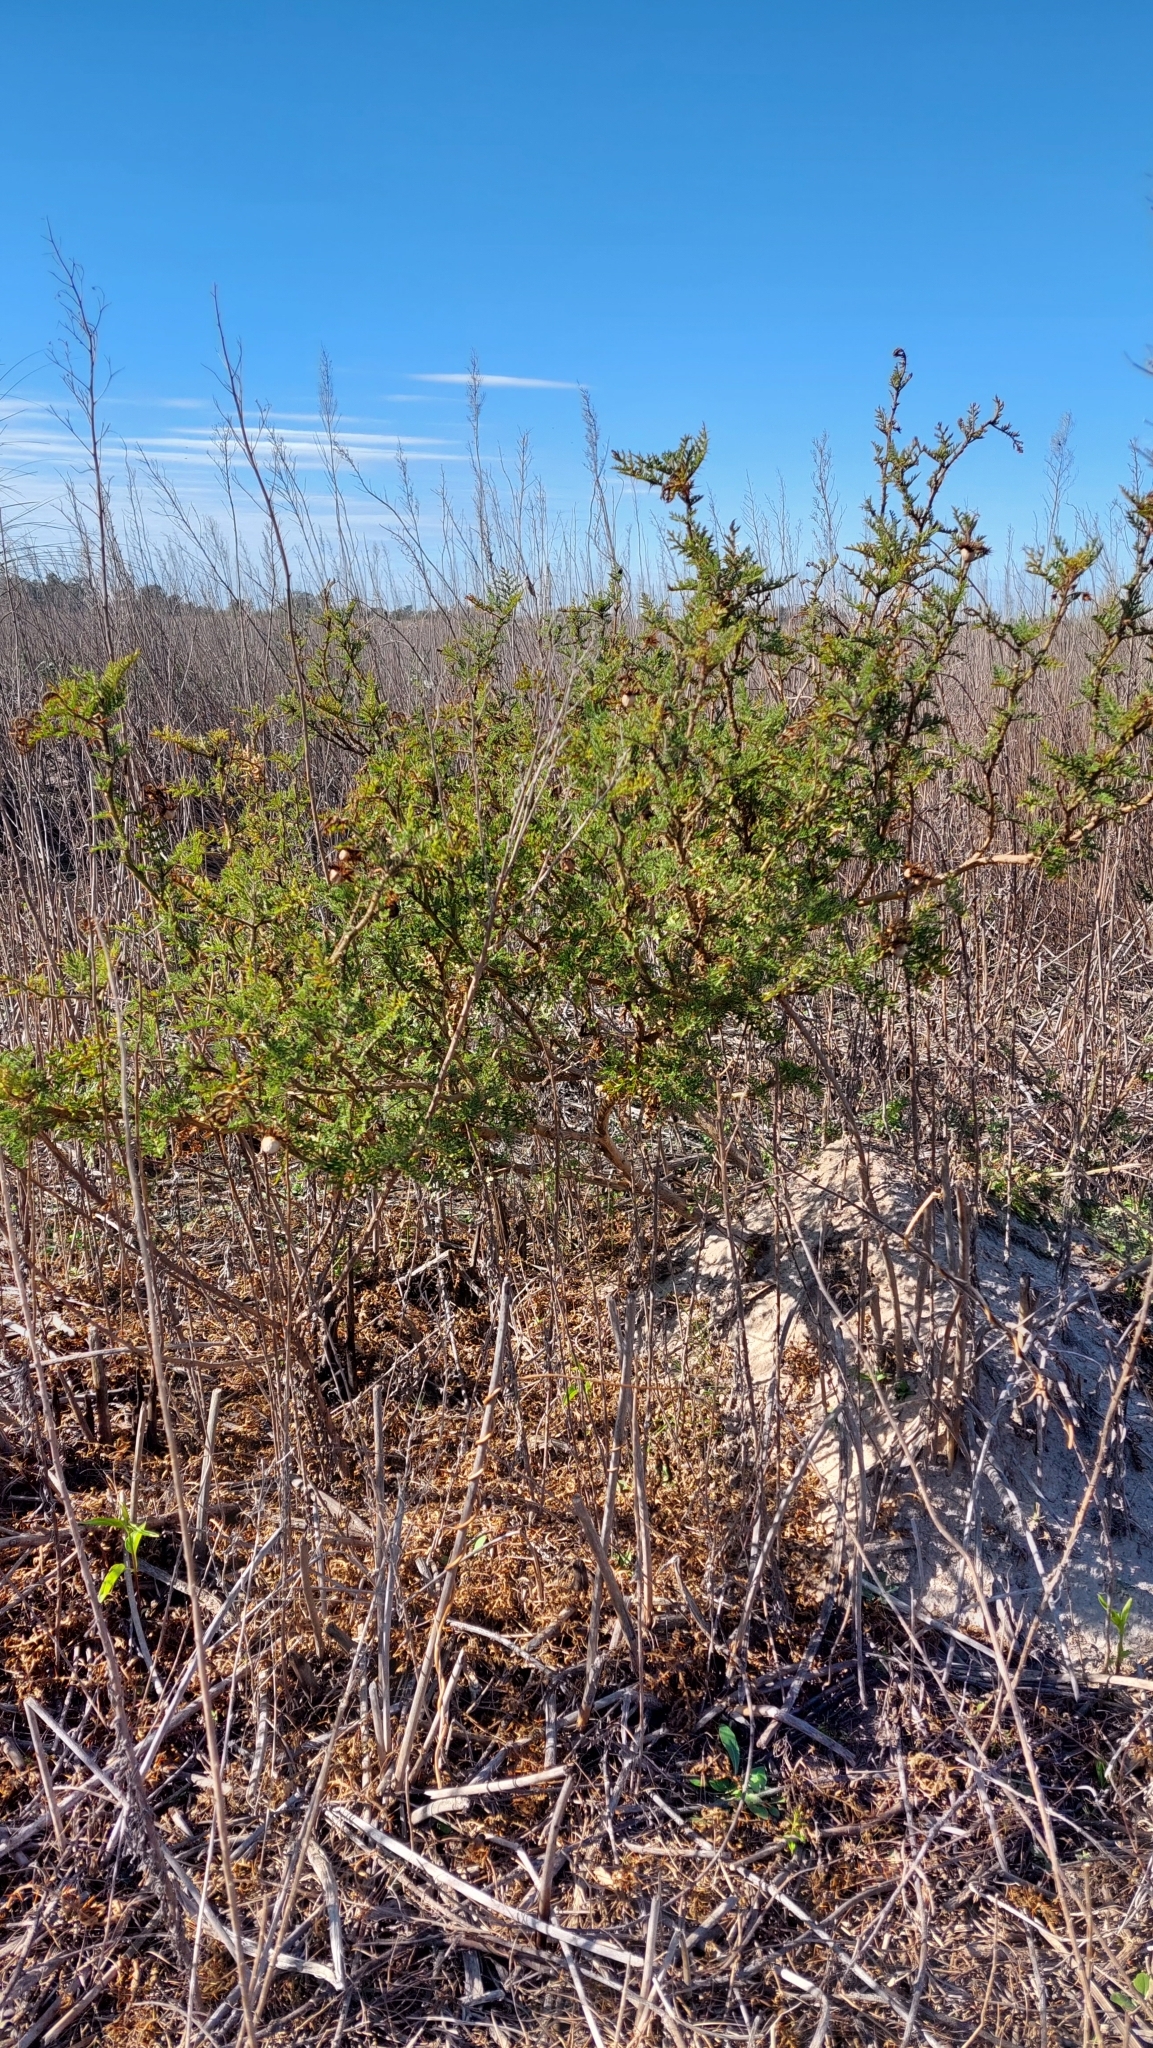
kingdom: Plantae
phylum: Tracheophyta
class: Magnoliopsida
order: Solanales
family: Solanaceae
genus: Solanum
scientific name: Solanum sisymbriifolium
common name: Red buffalo-bur
